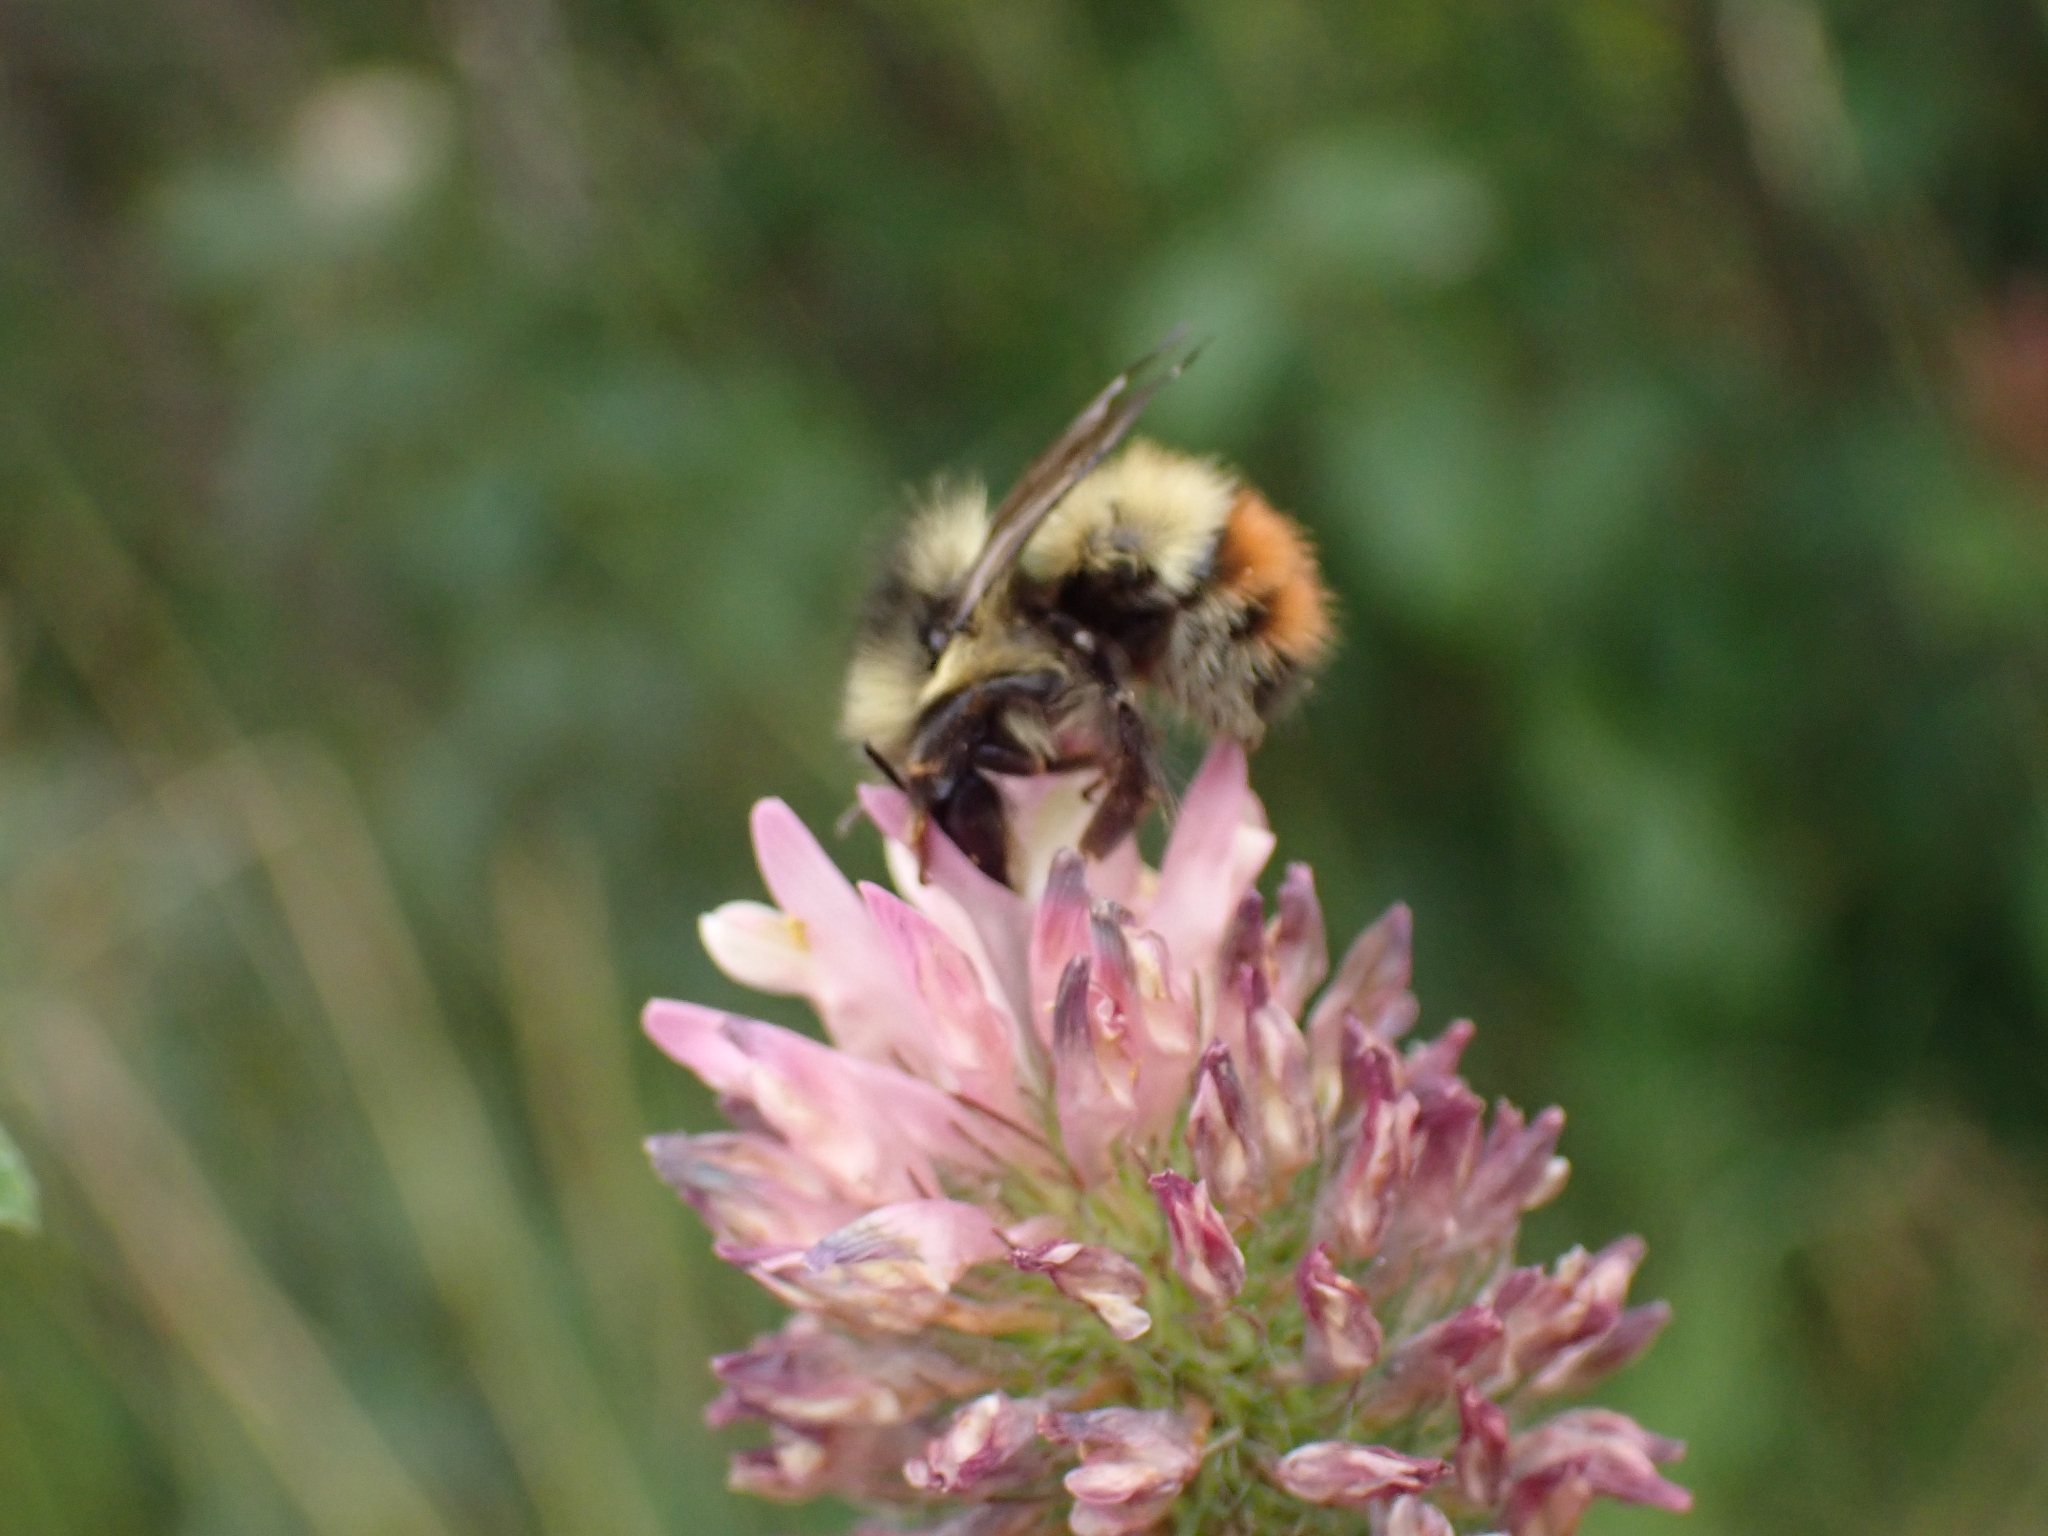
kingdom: Animalia
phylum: Arthropoda
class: Insecta
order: Hymenoptera
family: Apidae
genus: Bombus
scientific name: Bombus flavifrons
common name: Yellow head bumble bee
